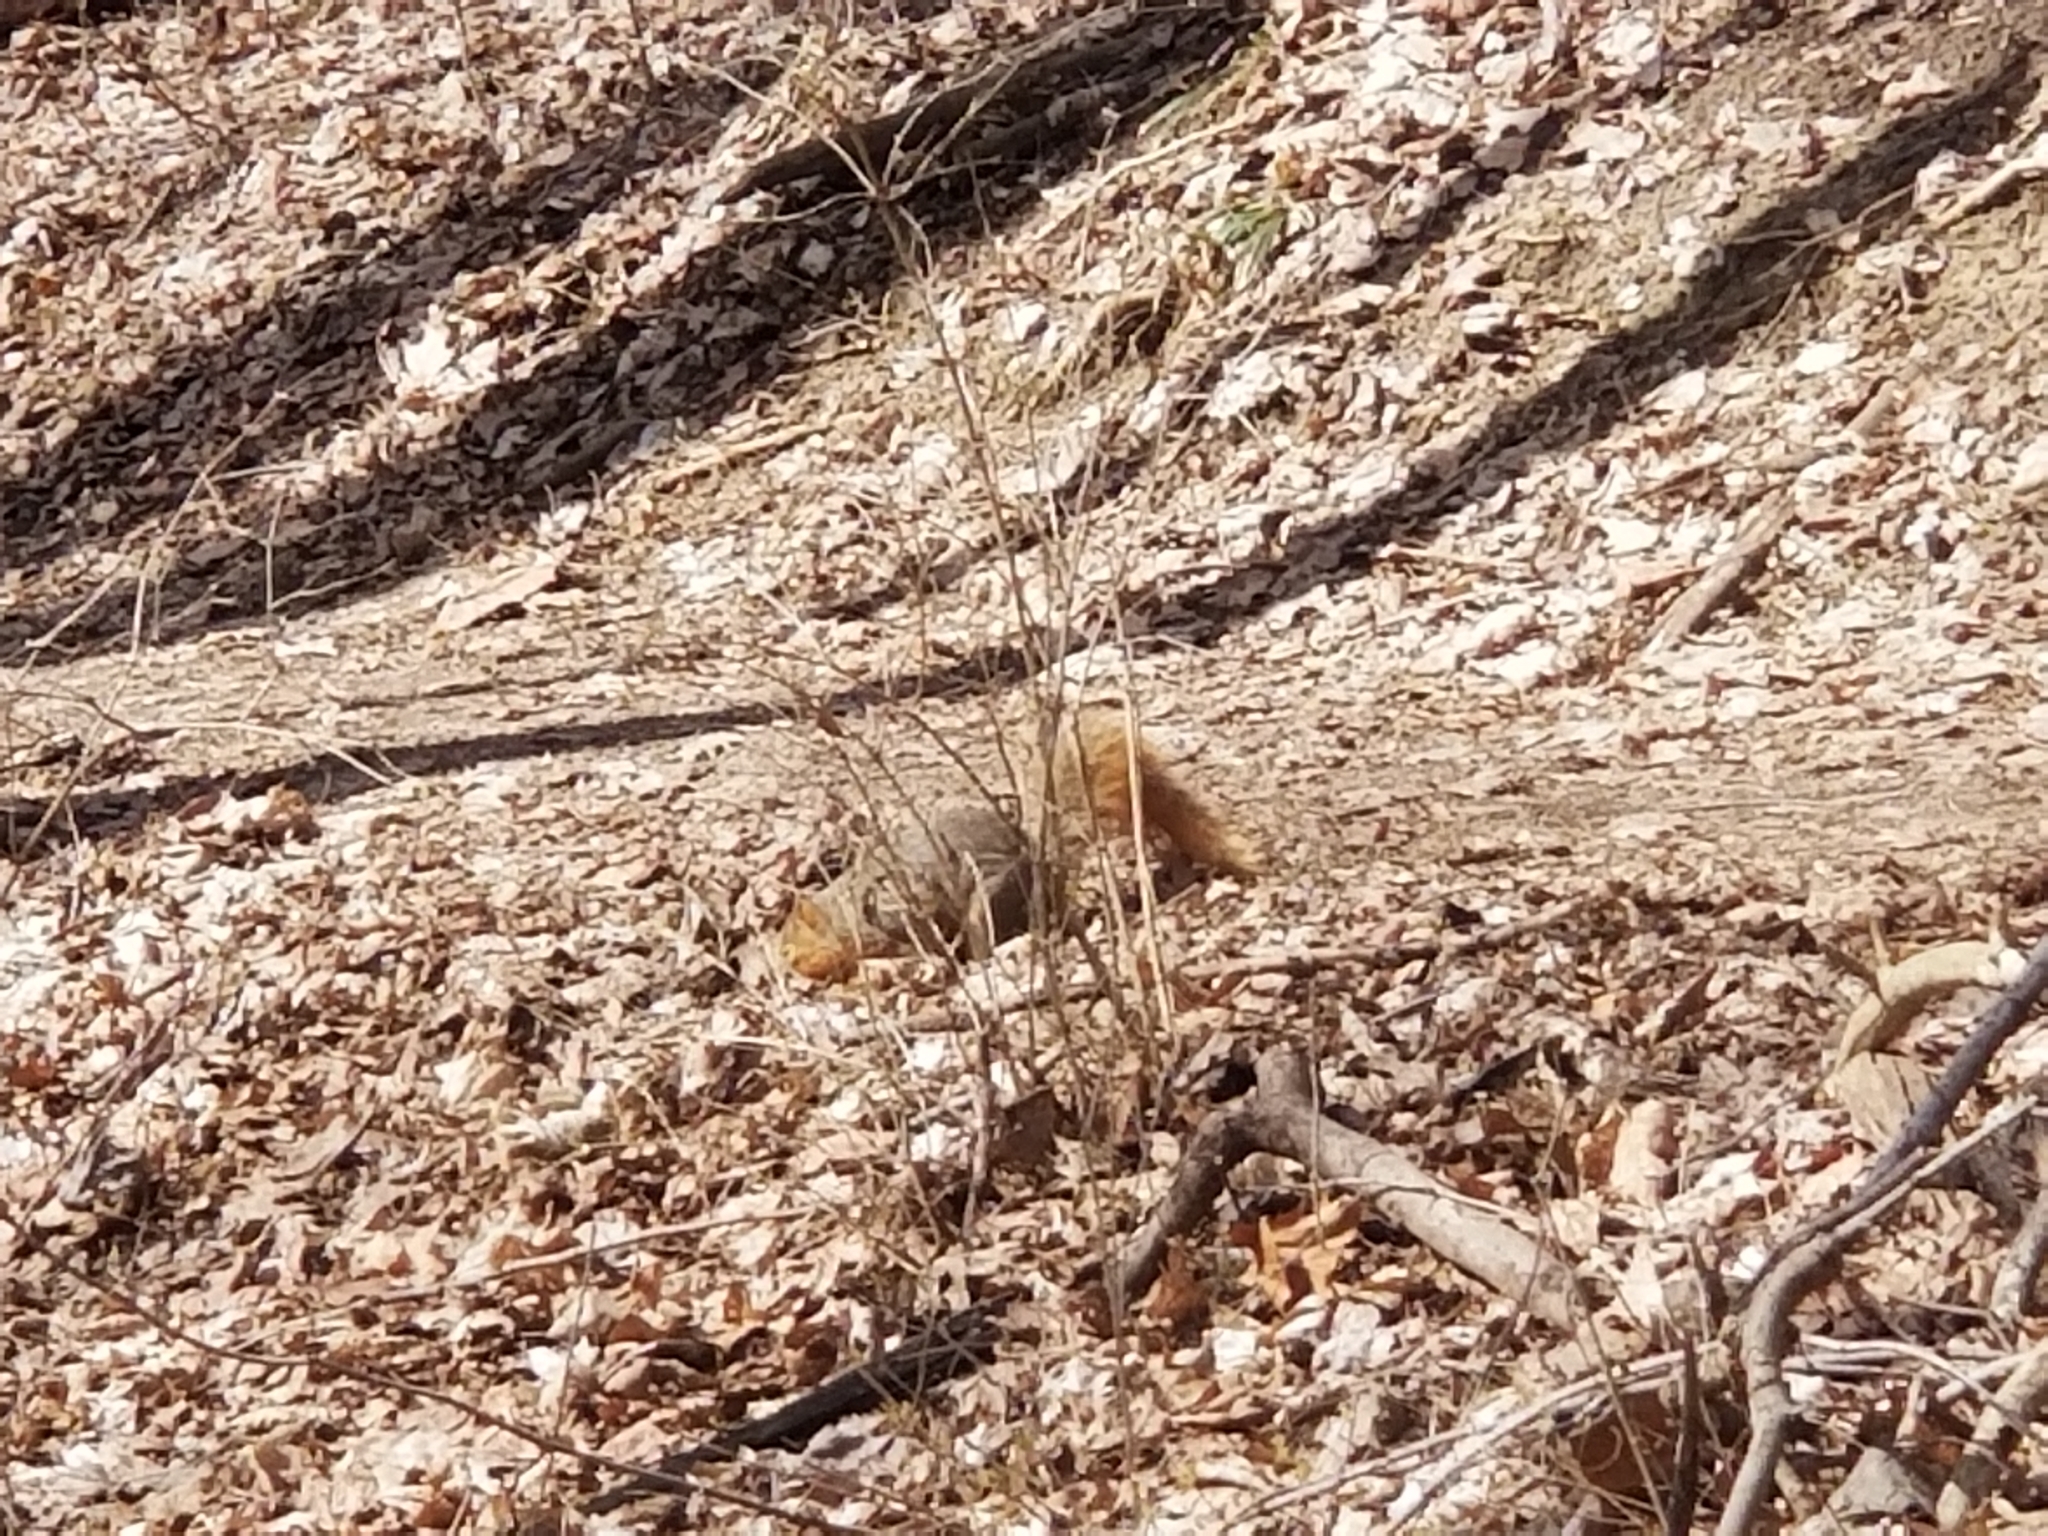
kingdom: Animalia
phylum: Chordata
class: Mammalia
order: Rodentia
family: Sciuridae
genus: Sciurus
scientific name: Sciurus niger
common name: Fox squirrel
